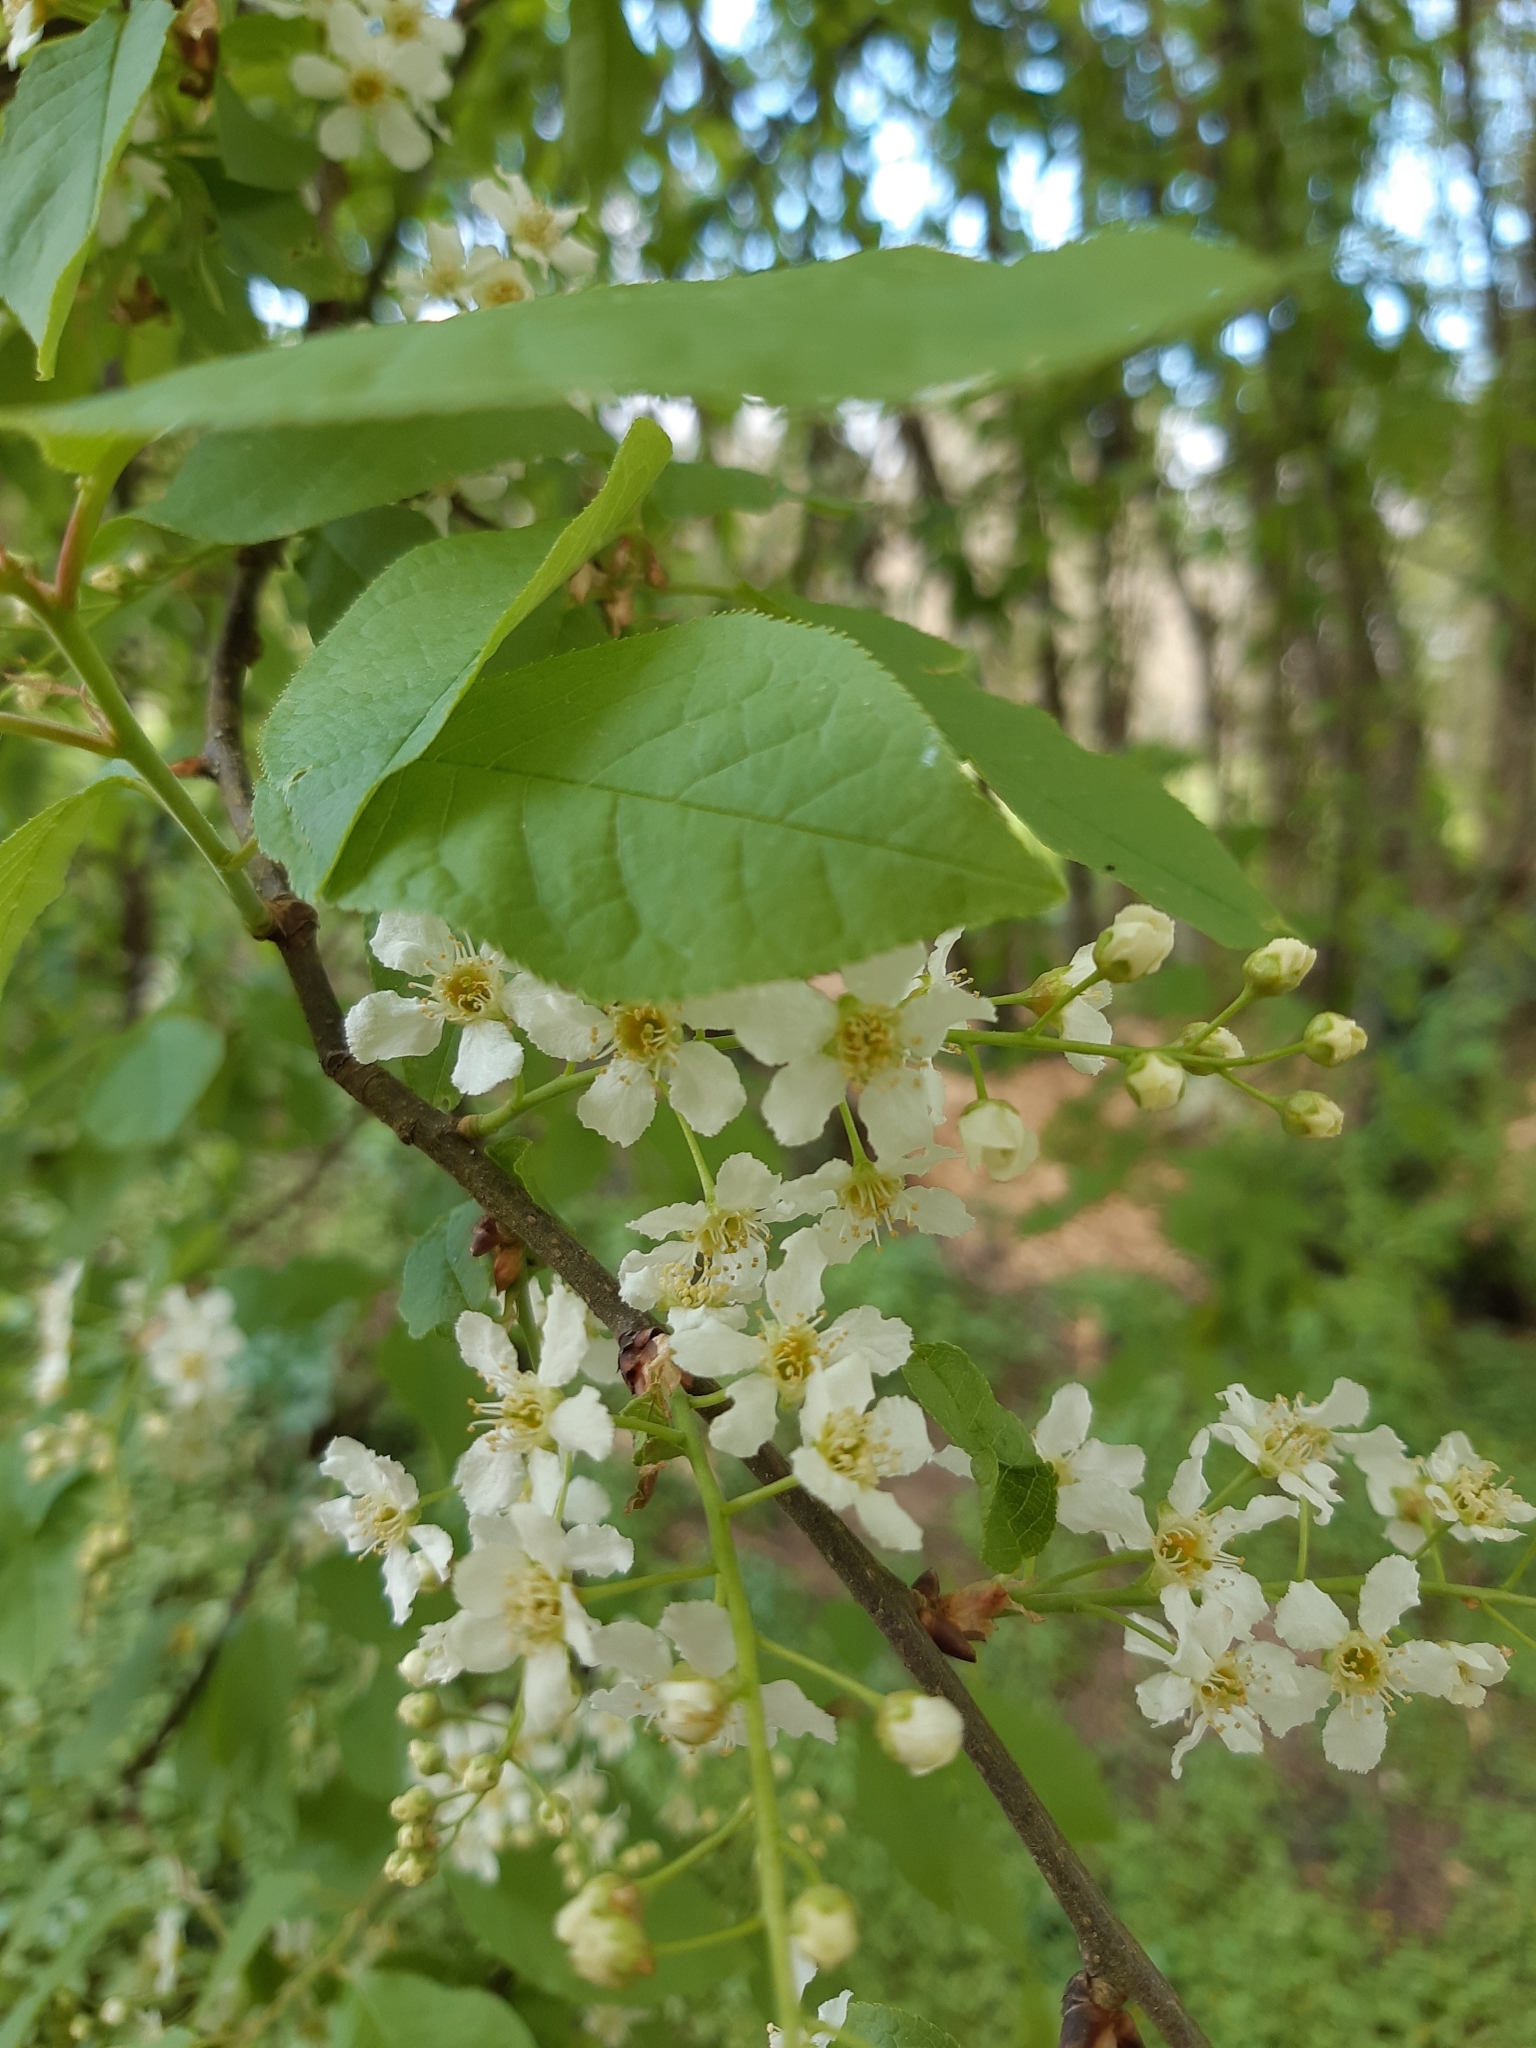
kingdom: Plantae
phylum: Tracheophyta
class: Magnoliopsida
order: Rosales
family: Rosaceae
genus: Prunus
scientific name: Prunus padus
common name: Bird cherry
